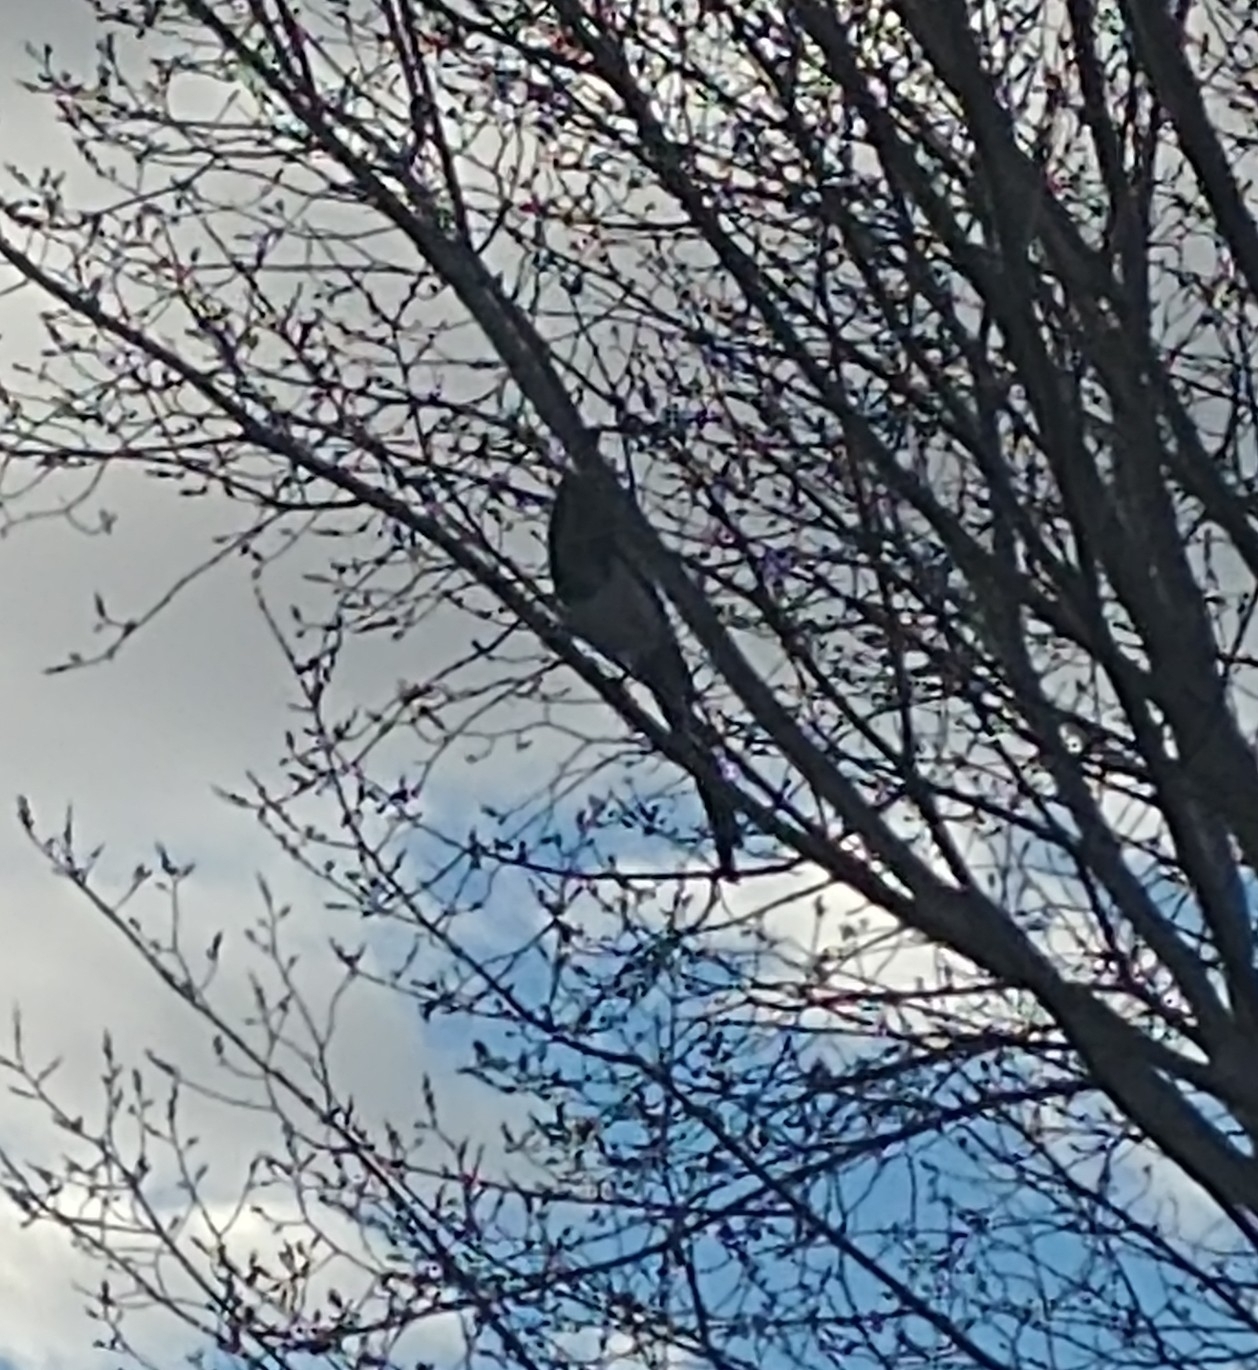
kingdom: Animalia
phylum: Chordata
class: Aves
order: Passeriformes
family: Corvidae
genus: Pica
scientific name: Pica hudsonia
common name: Black-billed magpie
